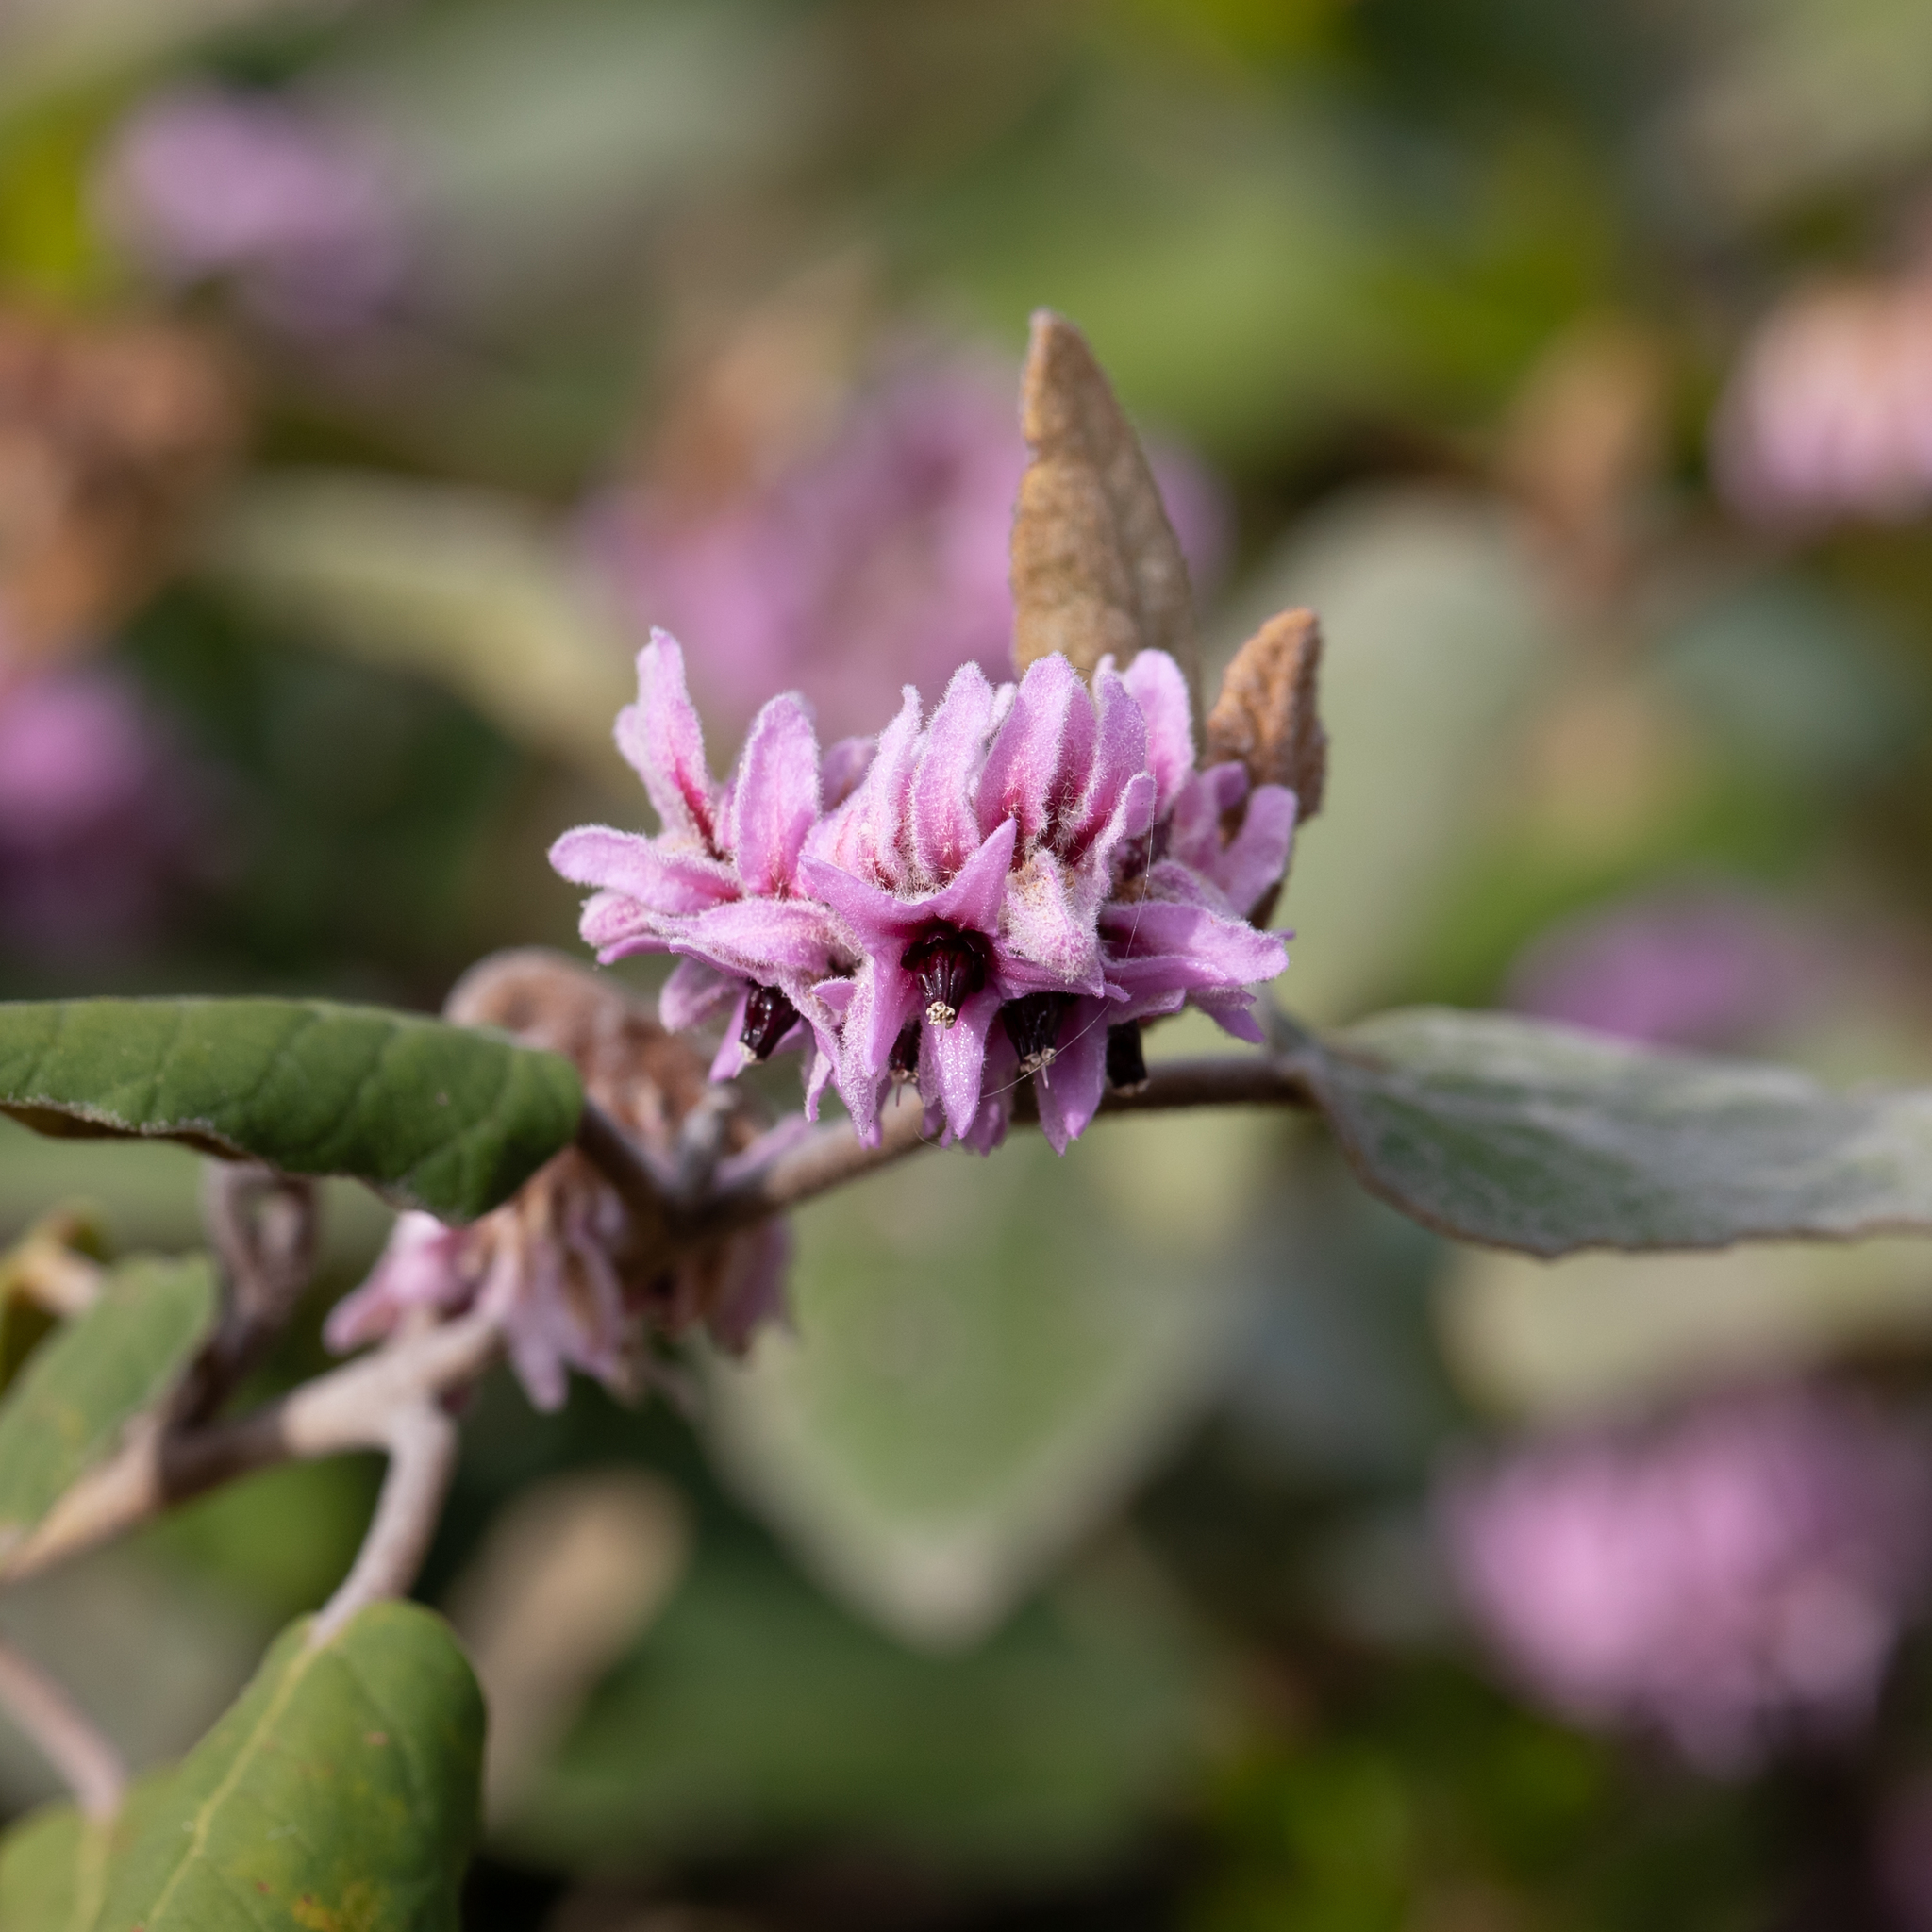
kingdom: Plantae
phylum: Tracheophyta
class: Magnoliopsida
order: Malvales
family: Malvaceae
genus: Lasiopetalum
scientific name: Lasiopetalum discolor
